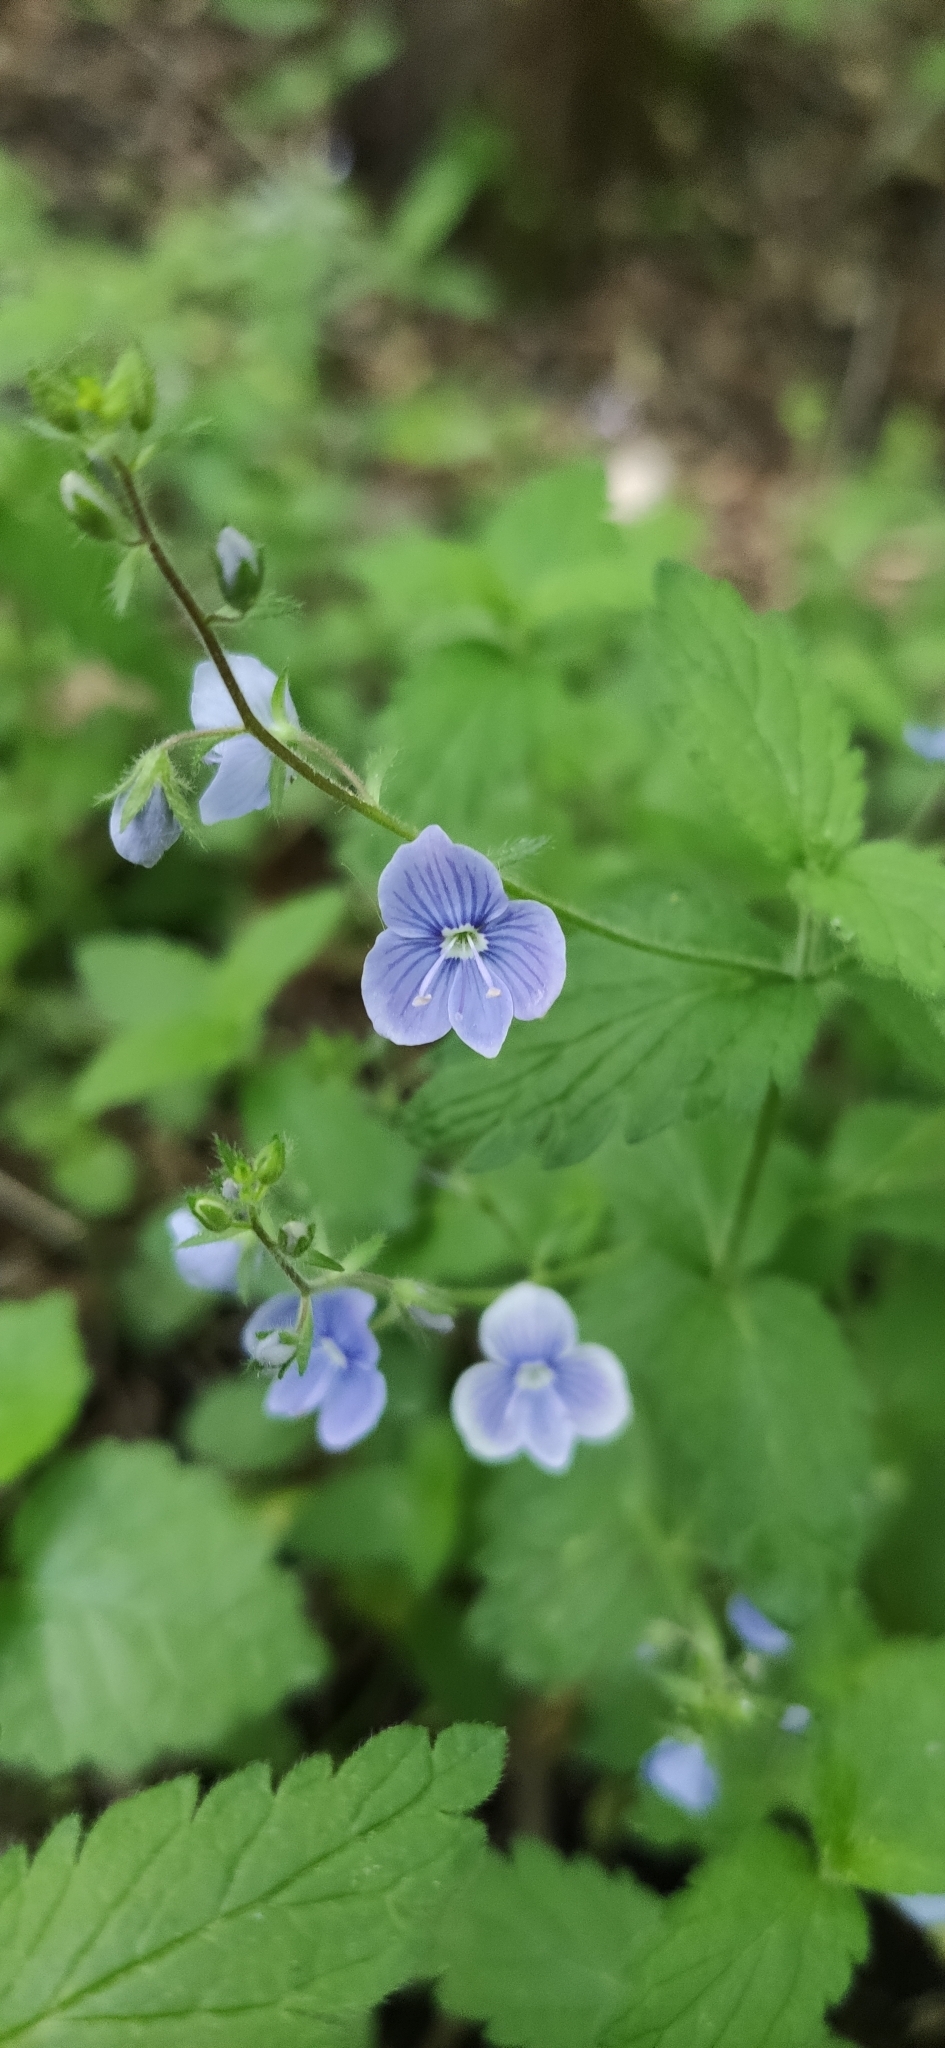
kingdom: Plantae
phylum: Tracheophyta
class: Magnoliopsida
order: Lamiales
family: Plantaginaceae
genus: Veronica
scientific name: Veronica chamaedrys
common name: Germander speedwell
